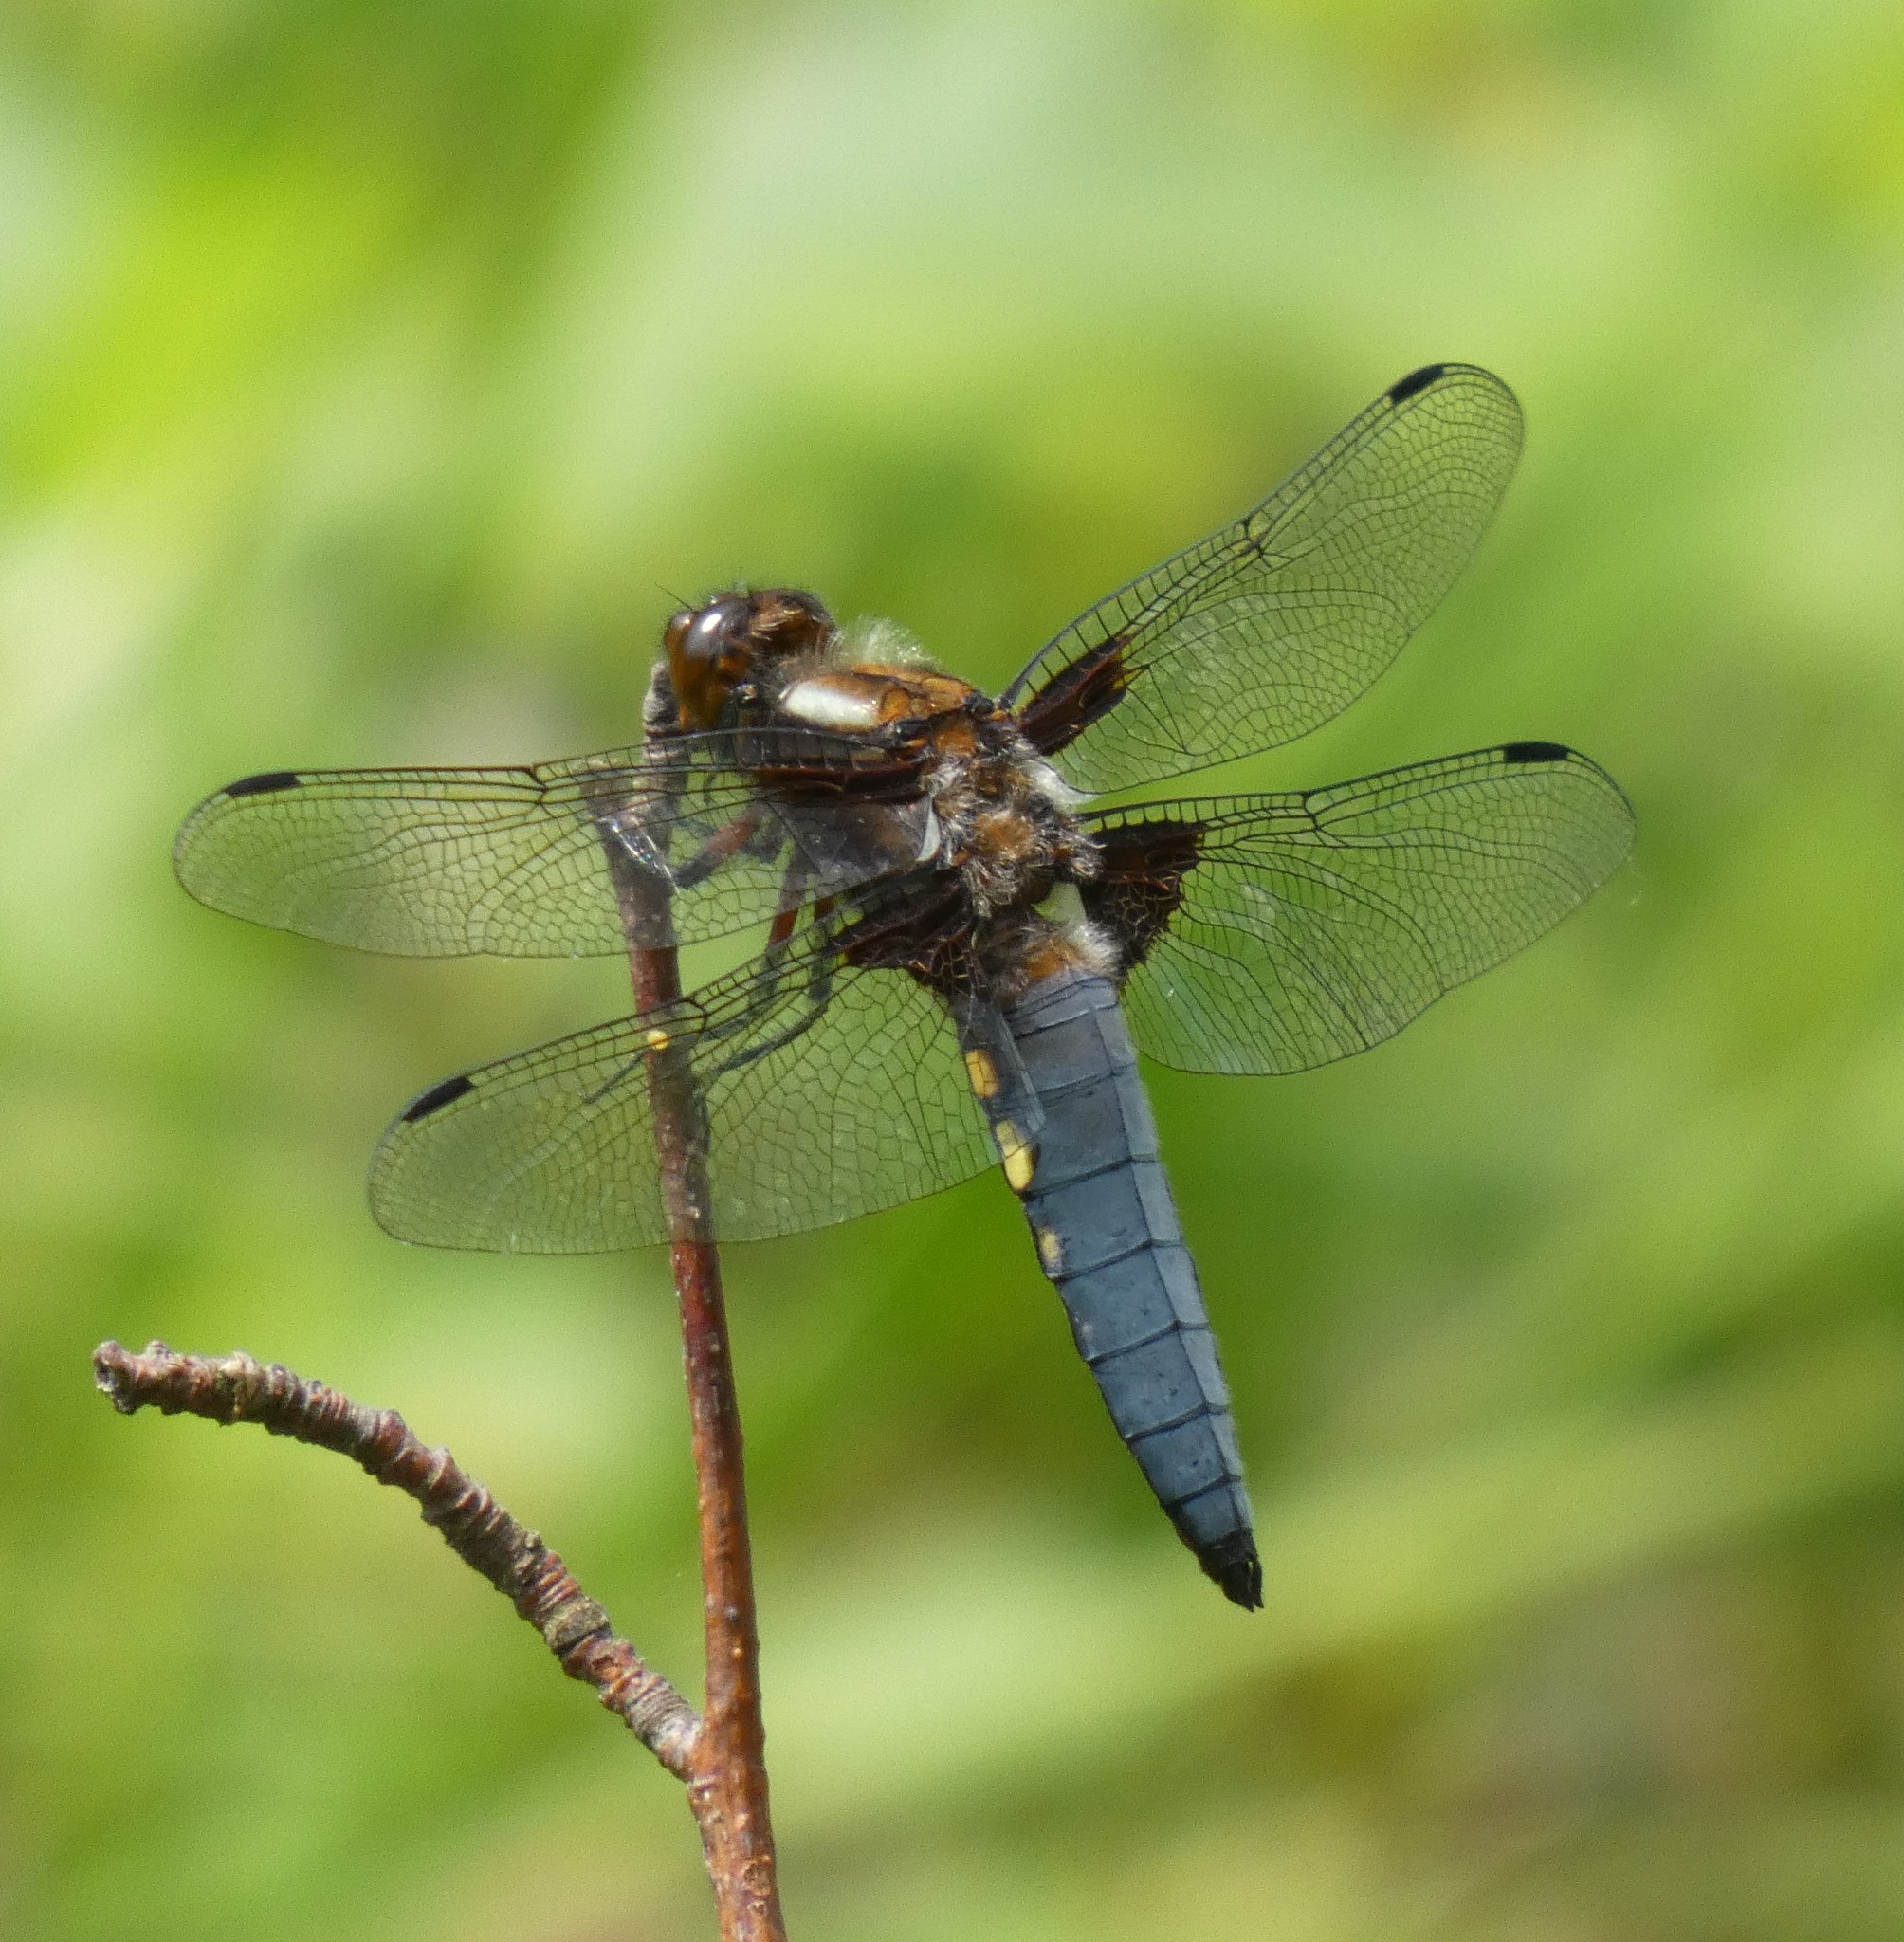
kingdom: Animalia
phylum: Arthropoda
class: Insecta
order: Odonata
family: Libellulidae
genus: Libellula
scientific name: Libellula depressa
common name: Broad-bodied chaser
